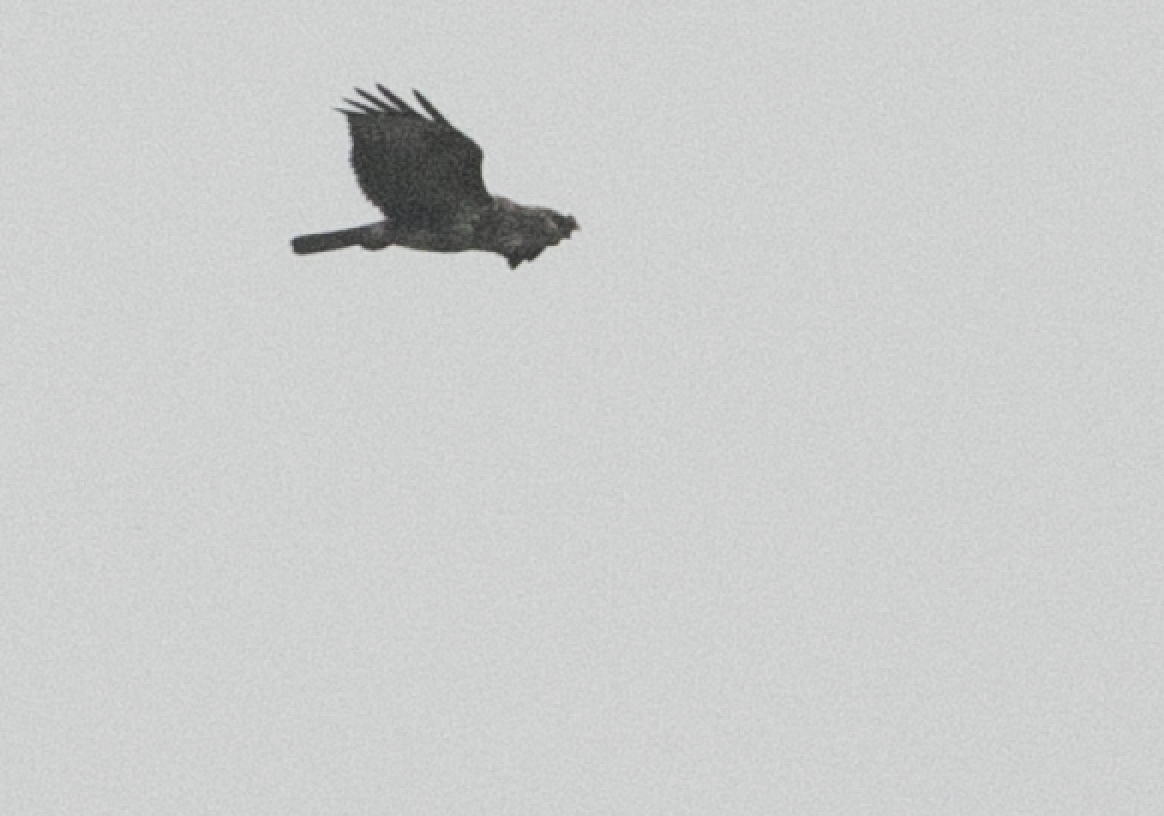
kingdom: Animalia
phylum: Chordata
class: Aves
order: Accipitriformes
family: Accipitridae
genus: Buteo
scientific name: Buteo buteo
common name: Common buzzard
